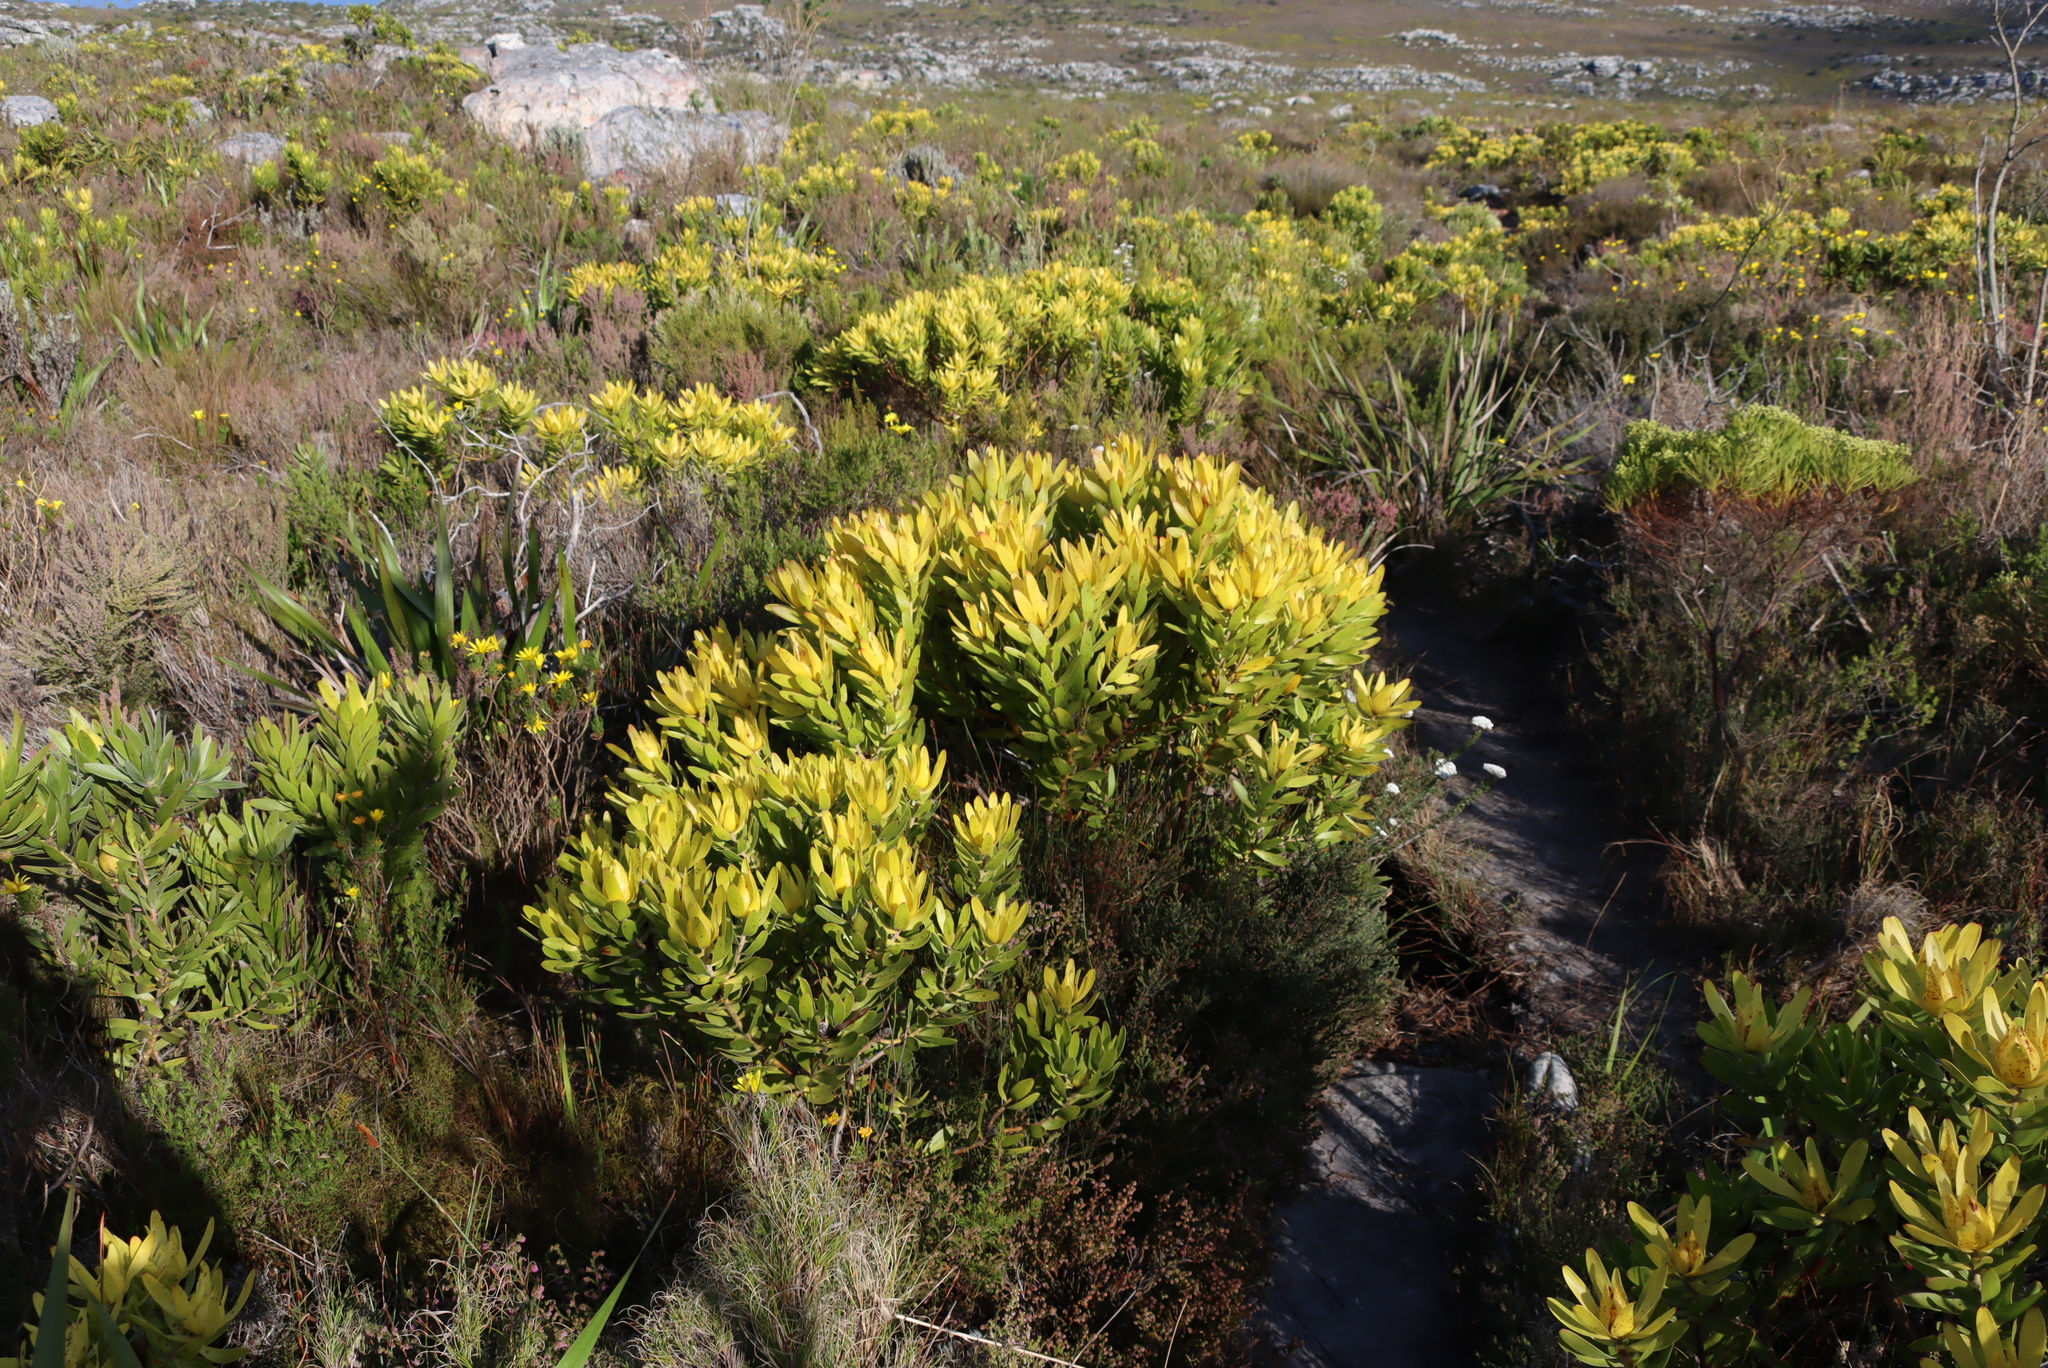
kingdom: Plantae
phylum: Tracheophyta
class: Magnoliopsida
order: Proteales
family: Proteaceae
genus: Leucadendron
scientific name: Leucadendron laureolum
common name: Golden sunshinebush
